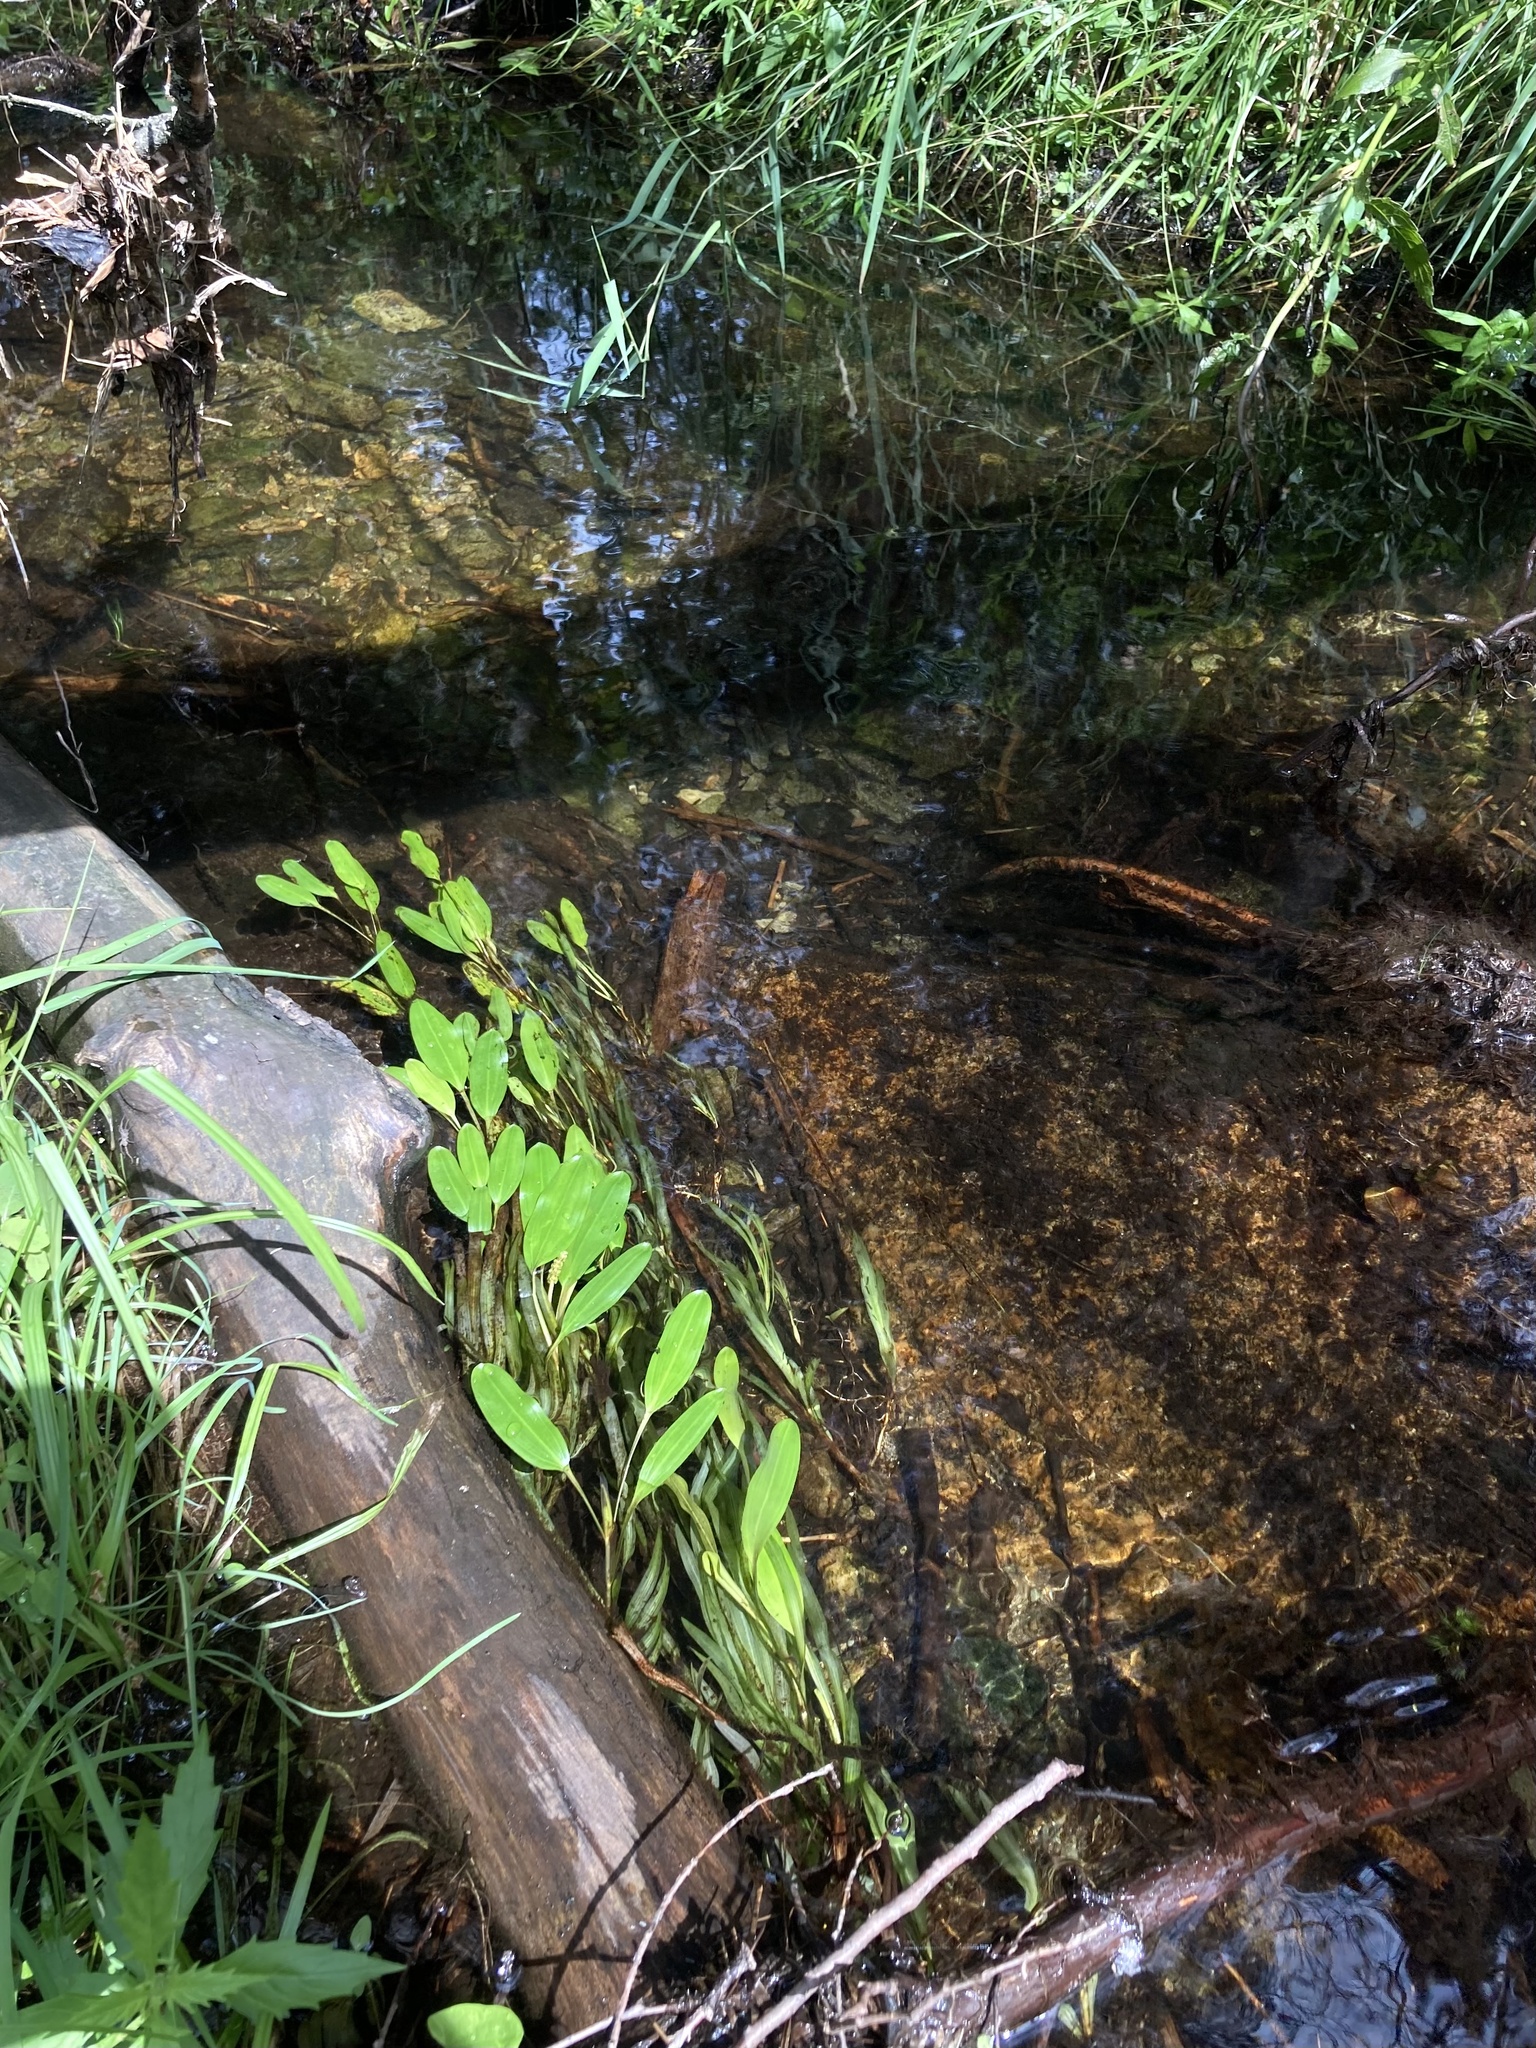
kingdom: Plantae
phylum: Tracheophyta
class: Liliopsida
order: Alismatales
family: Potamogetonaceae
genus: Potamogeton
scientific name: Potamogeton epihydrus
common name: American pondweed
